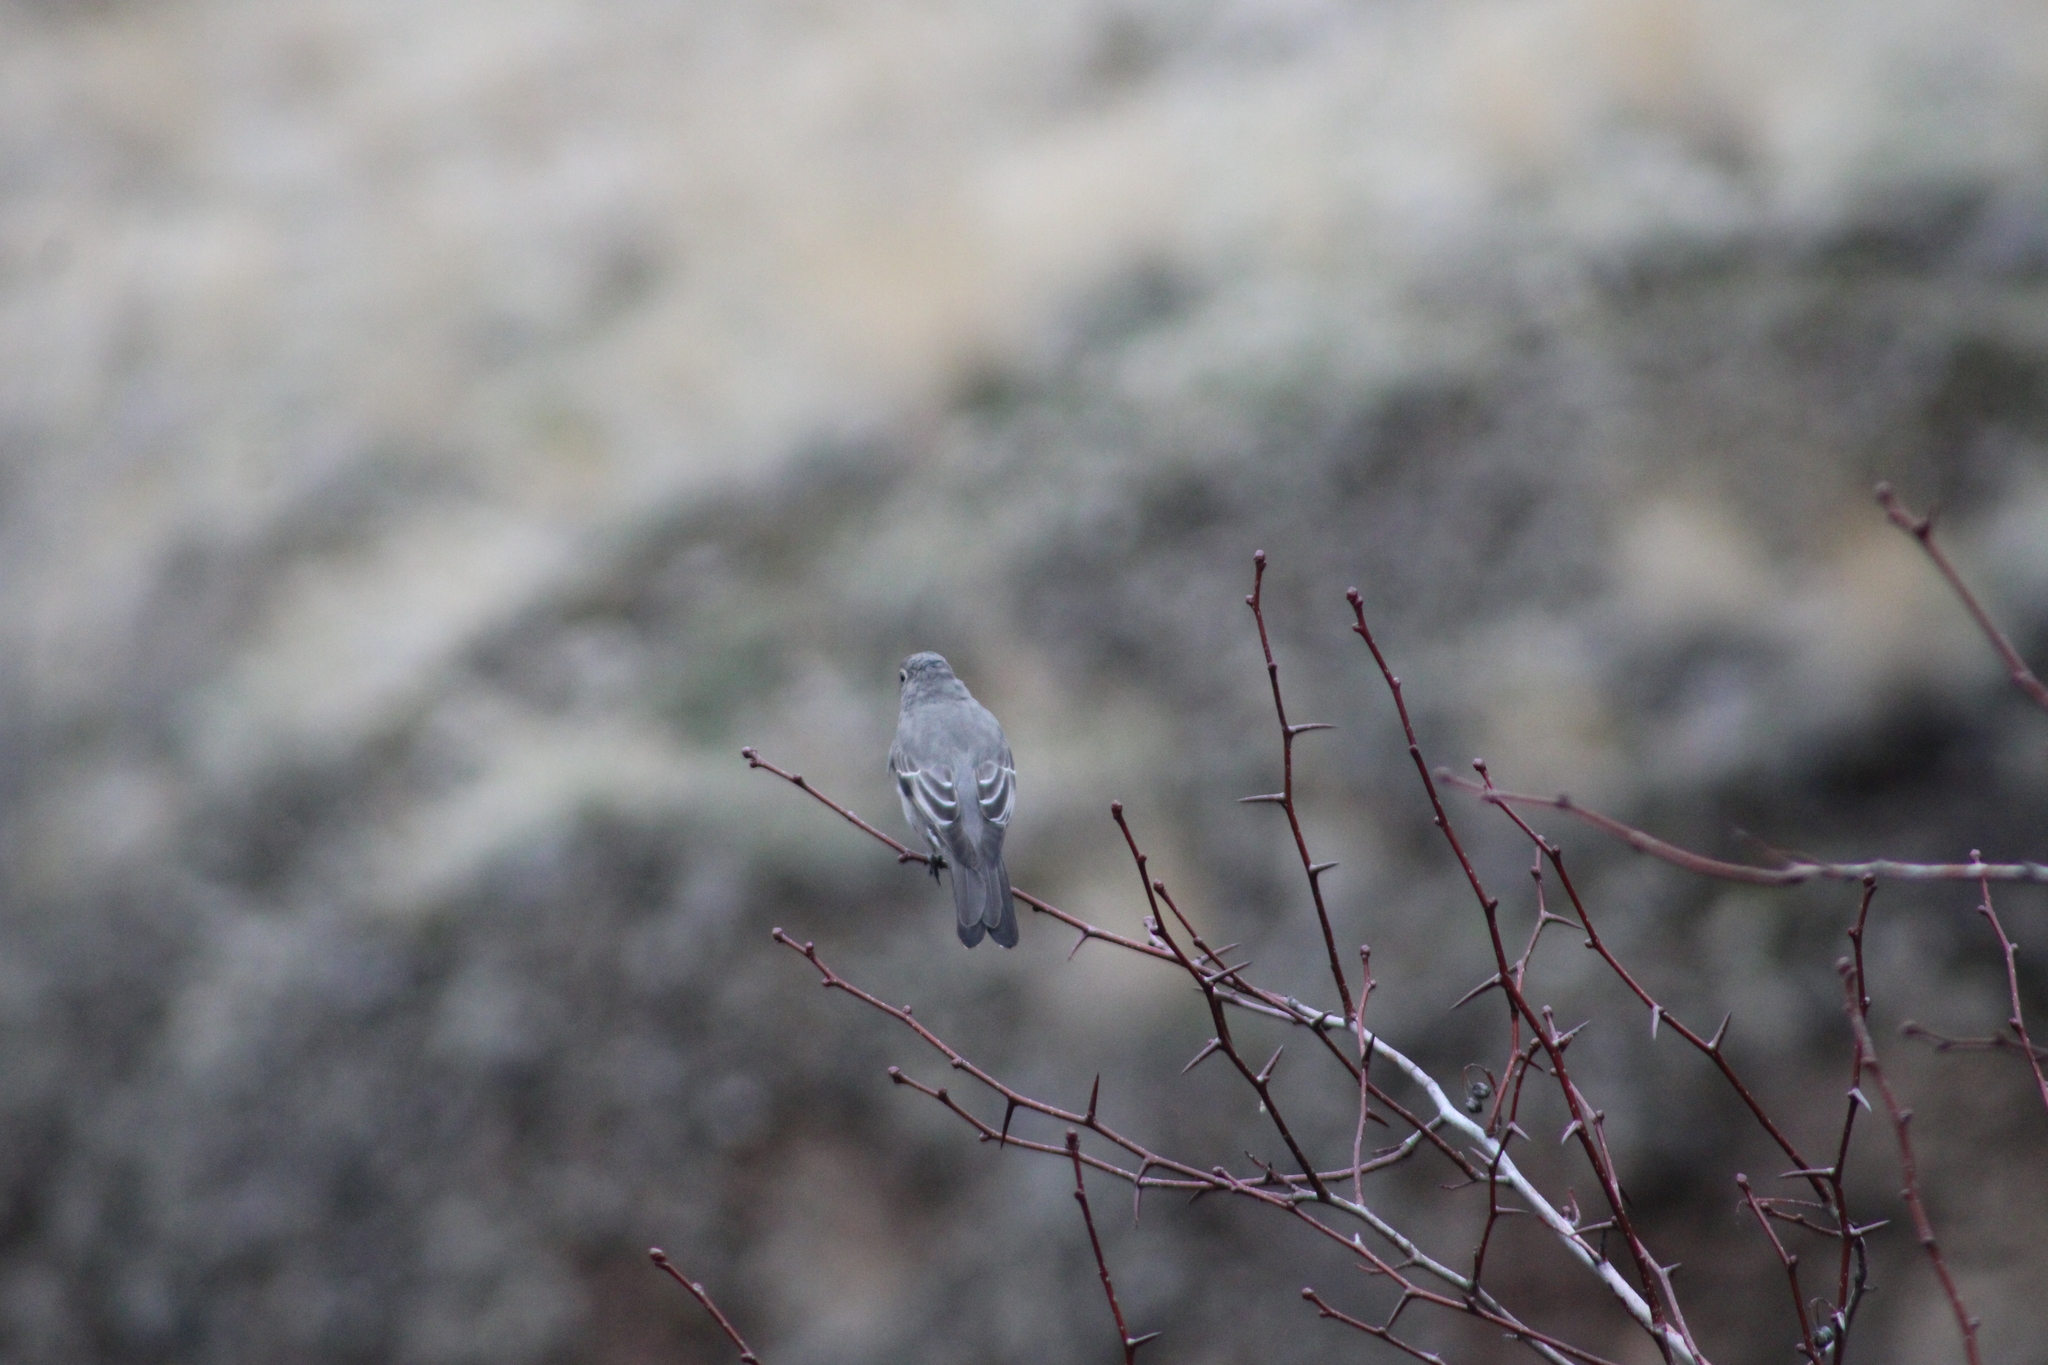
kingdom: Animalia
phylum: Chordata
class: Aves
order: Passeriformes
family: Turdidae
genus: Myadestes
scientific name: Myadestes townsendi
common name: Townsend's solitaire
